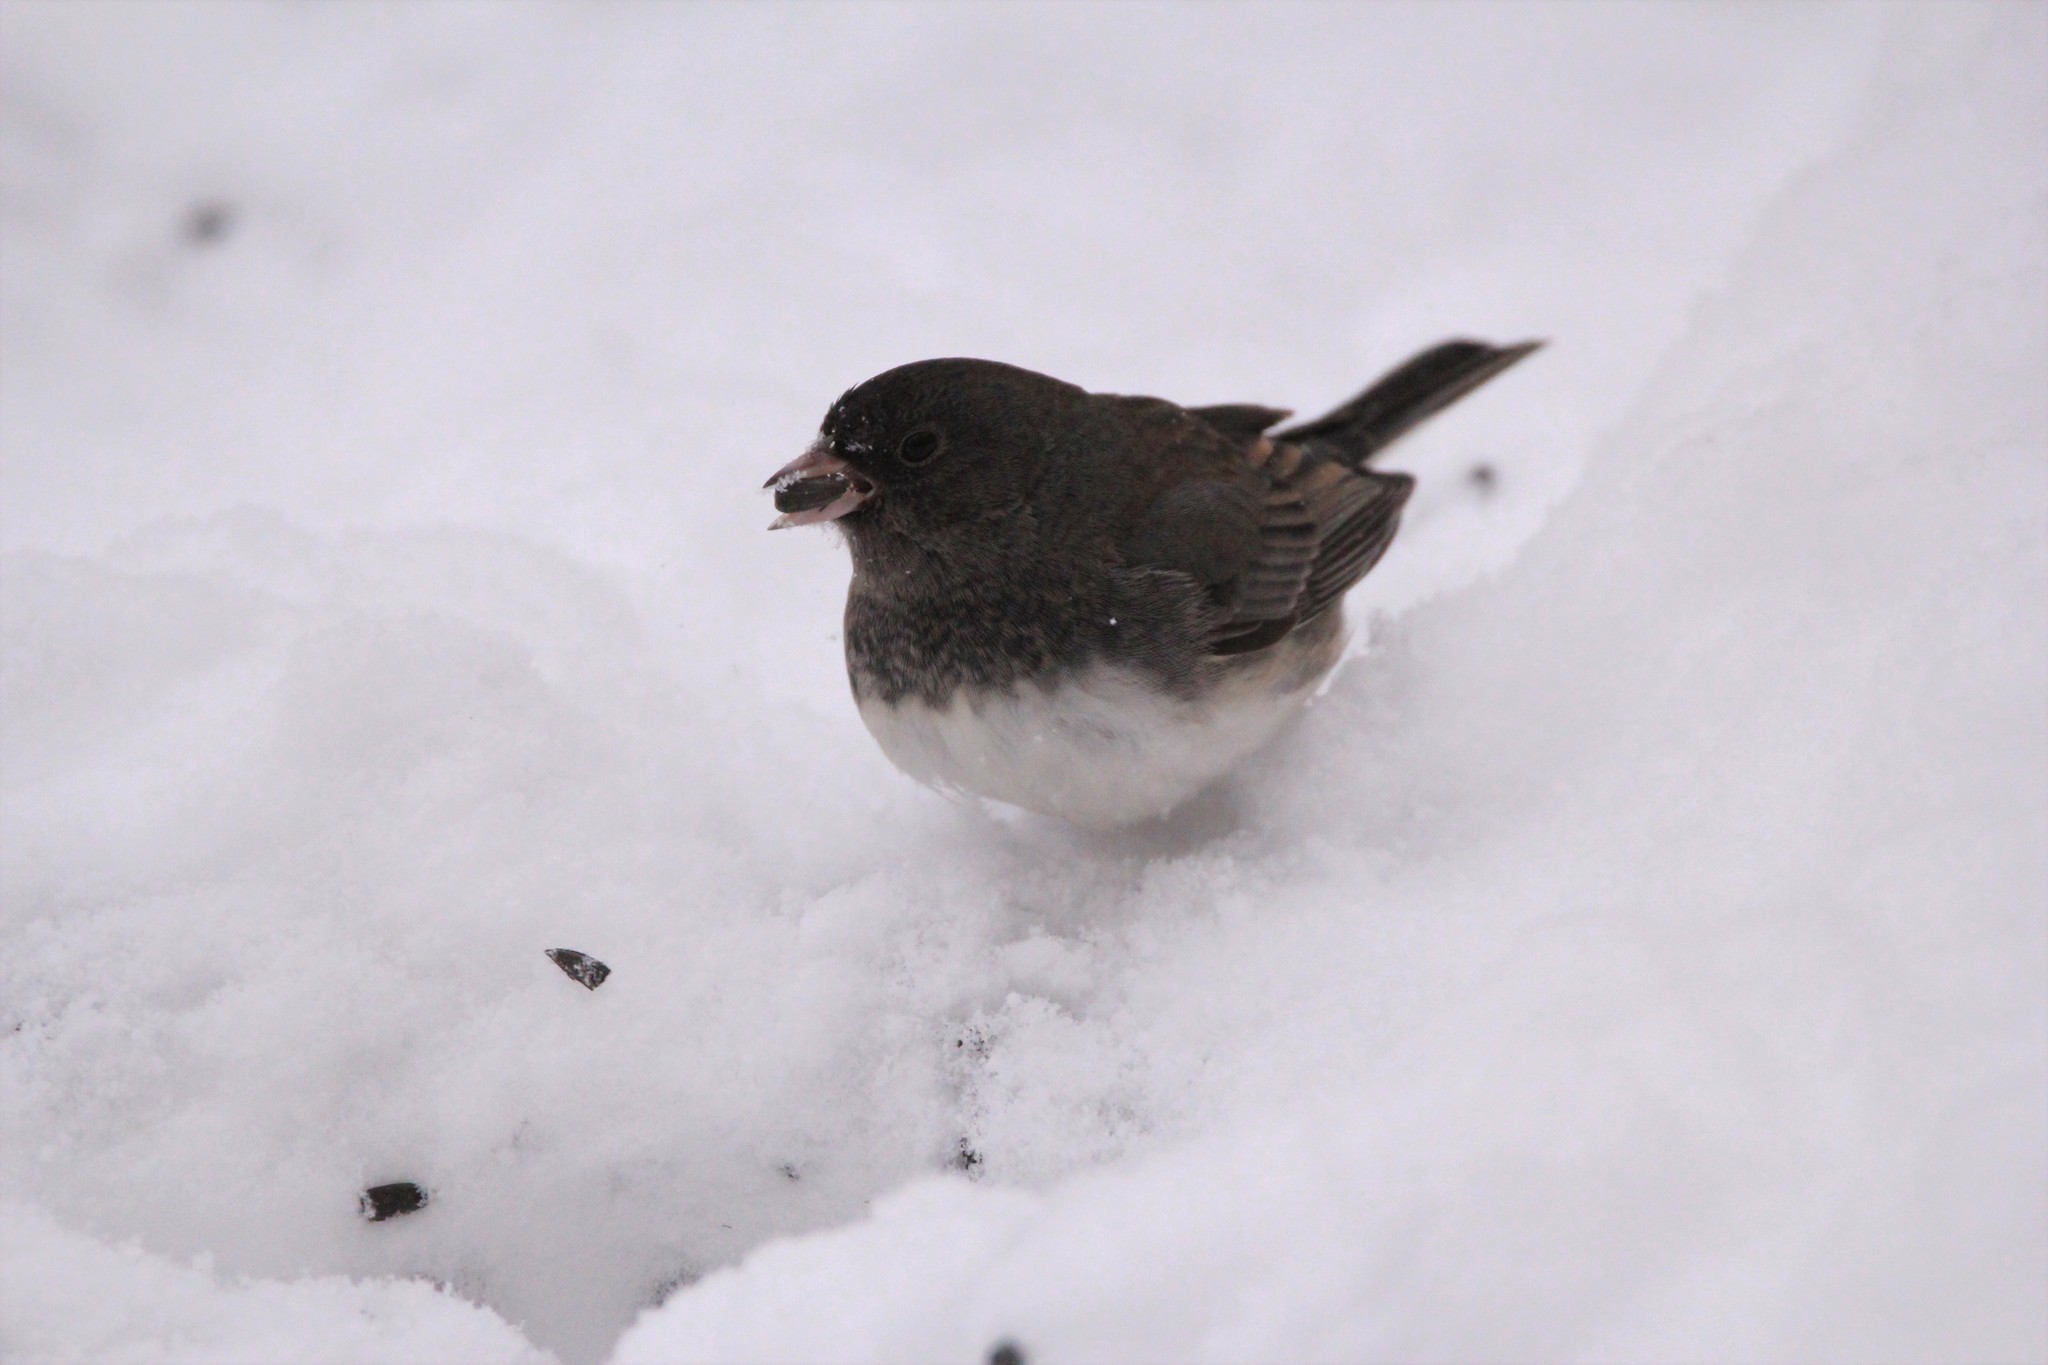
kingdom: Animalia
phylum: Chordata
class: Aves
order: Passeriformes
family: Passerellidae
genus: Junco
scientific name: Junco hyemalis
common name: Dark-eyed junco
